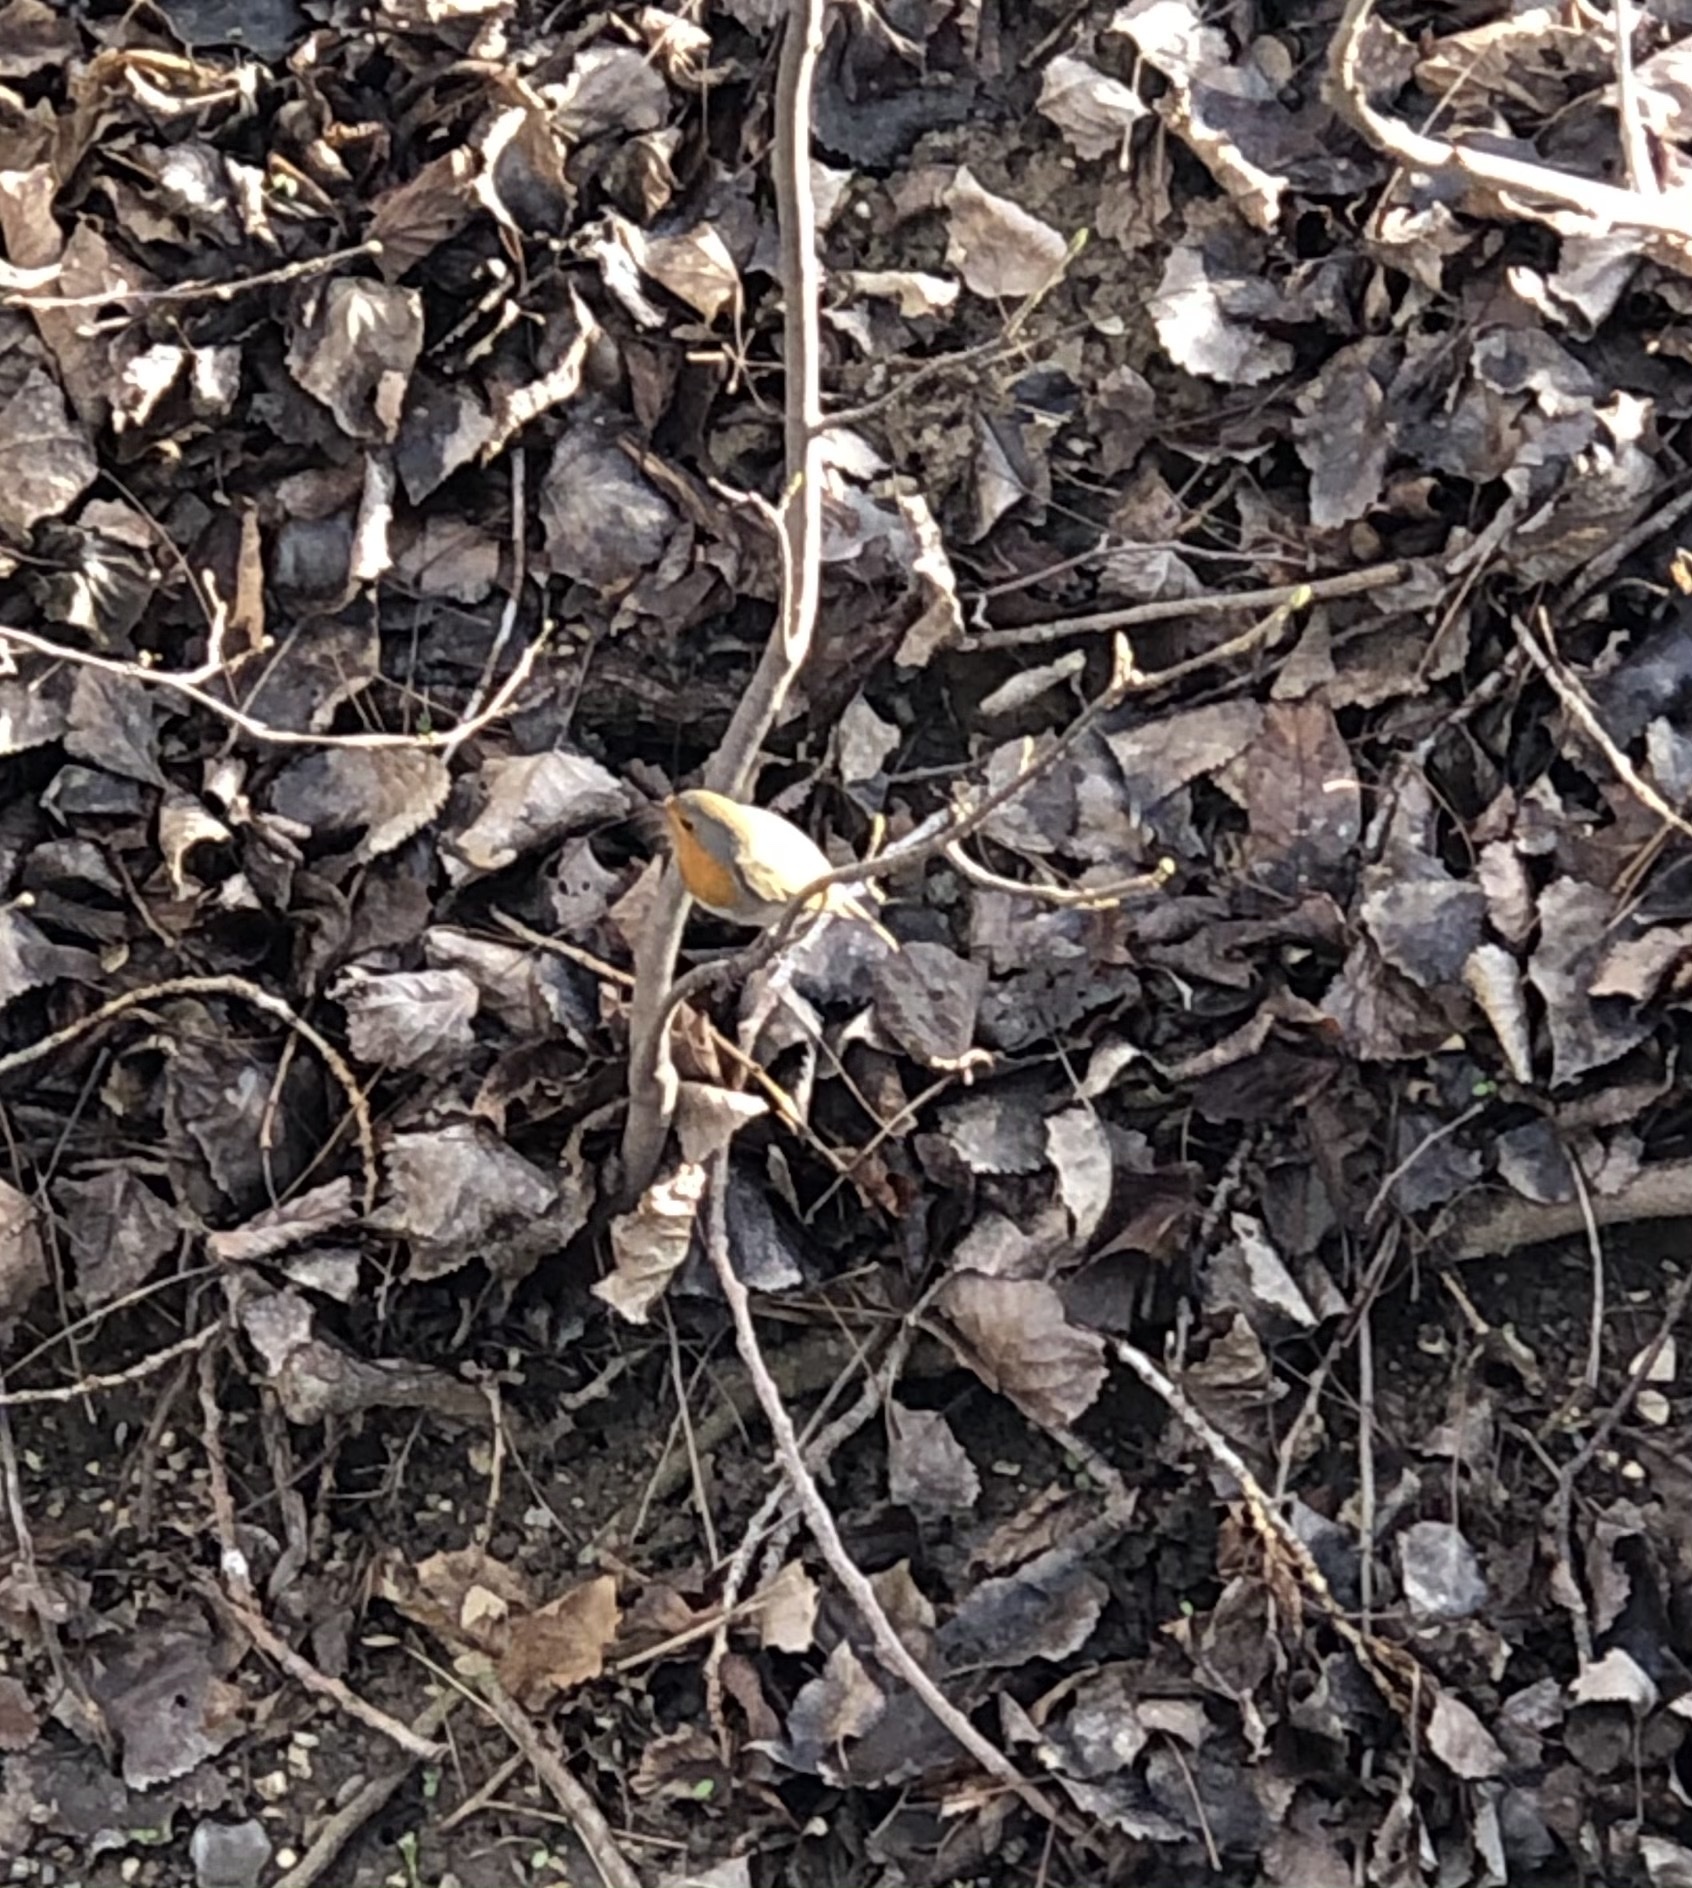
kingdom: Animalia
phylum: Chordata
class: Aves
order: Passeriformes
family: Muscicapidae
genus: Erithacus
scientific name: Erithacus rubecula
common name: European robin
